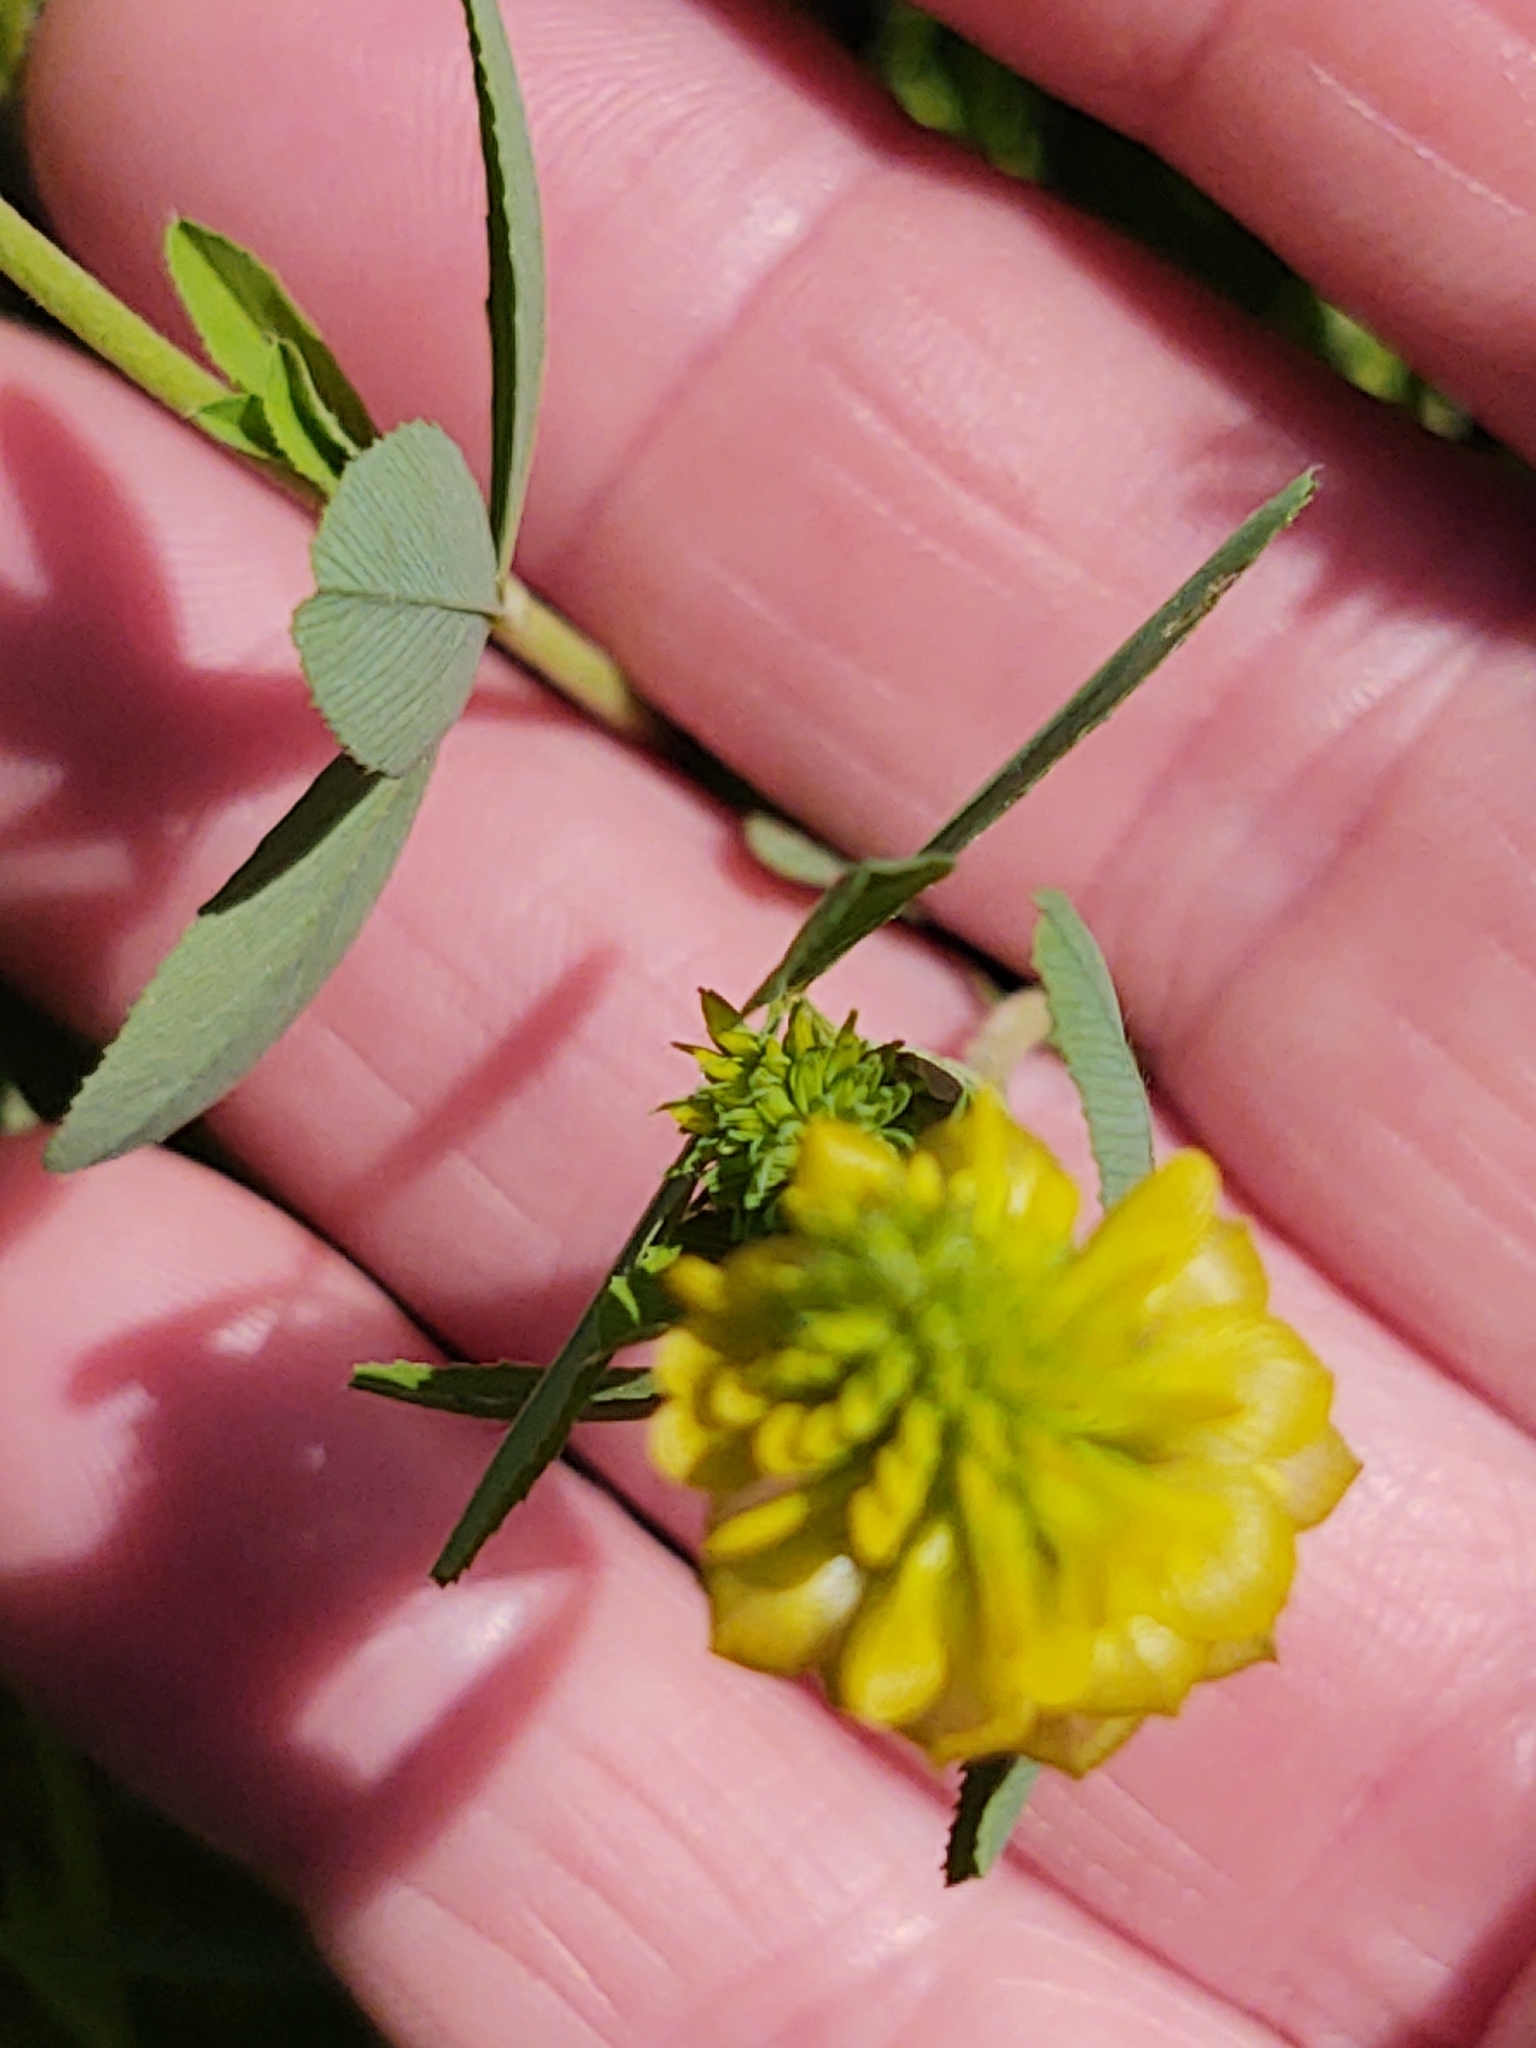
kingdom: Plantae
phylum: Tracheophyta
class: Magnoliopsida
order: Fabales
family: Fabaceae
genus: Trifolium
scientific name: Trifolium aureum
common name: Golden clover
